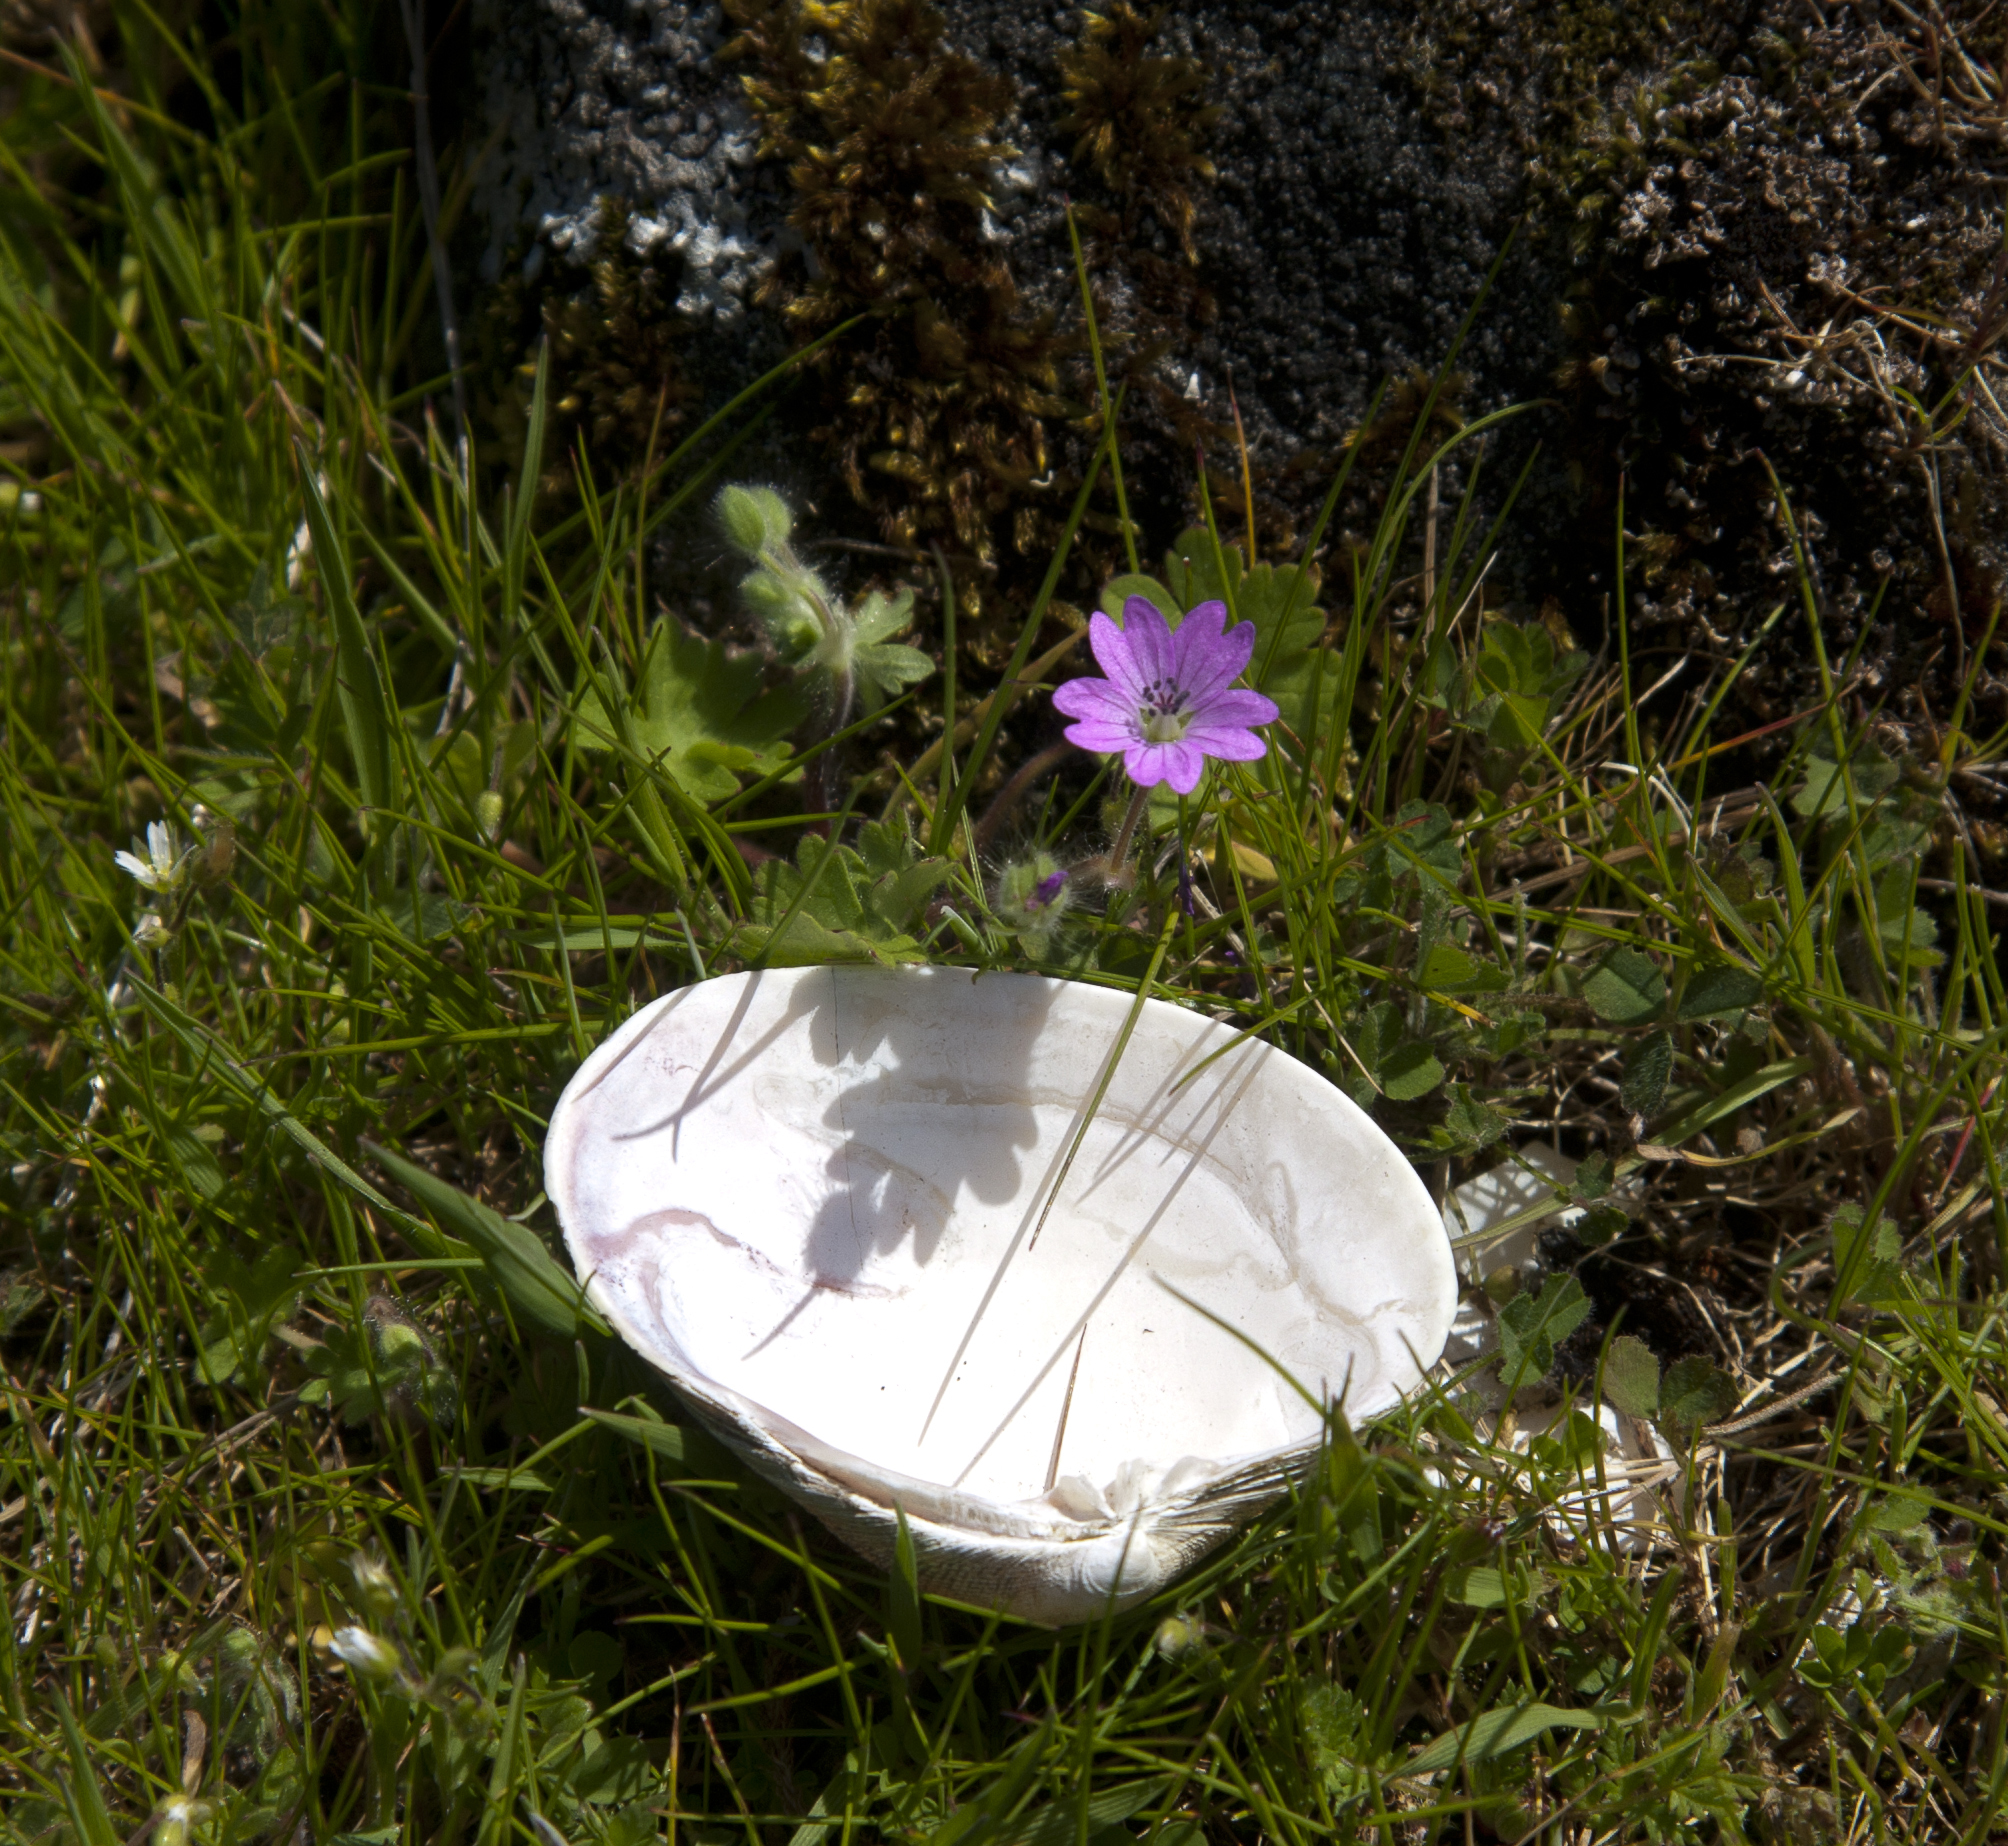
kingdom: Plantae
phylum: Tracheophyta
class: Magnoliopsida
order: Geraniales
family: Geraniaceae
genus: Geranium
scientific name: Geranium molle
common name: Dove's-foot crane's-bill
